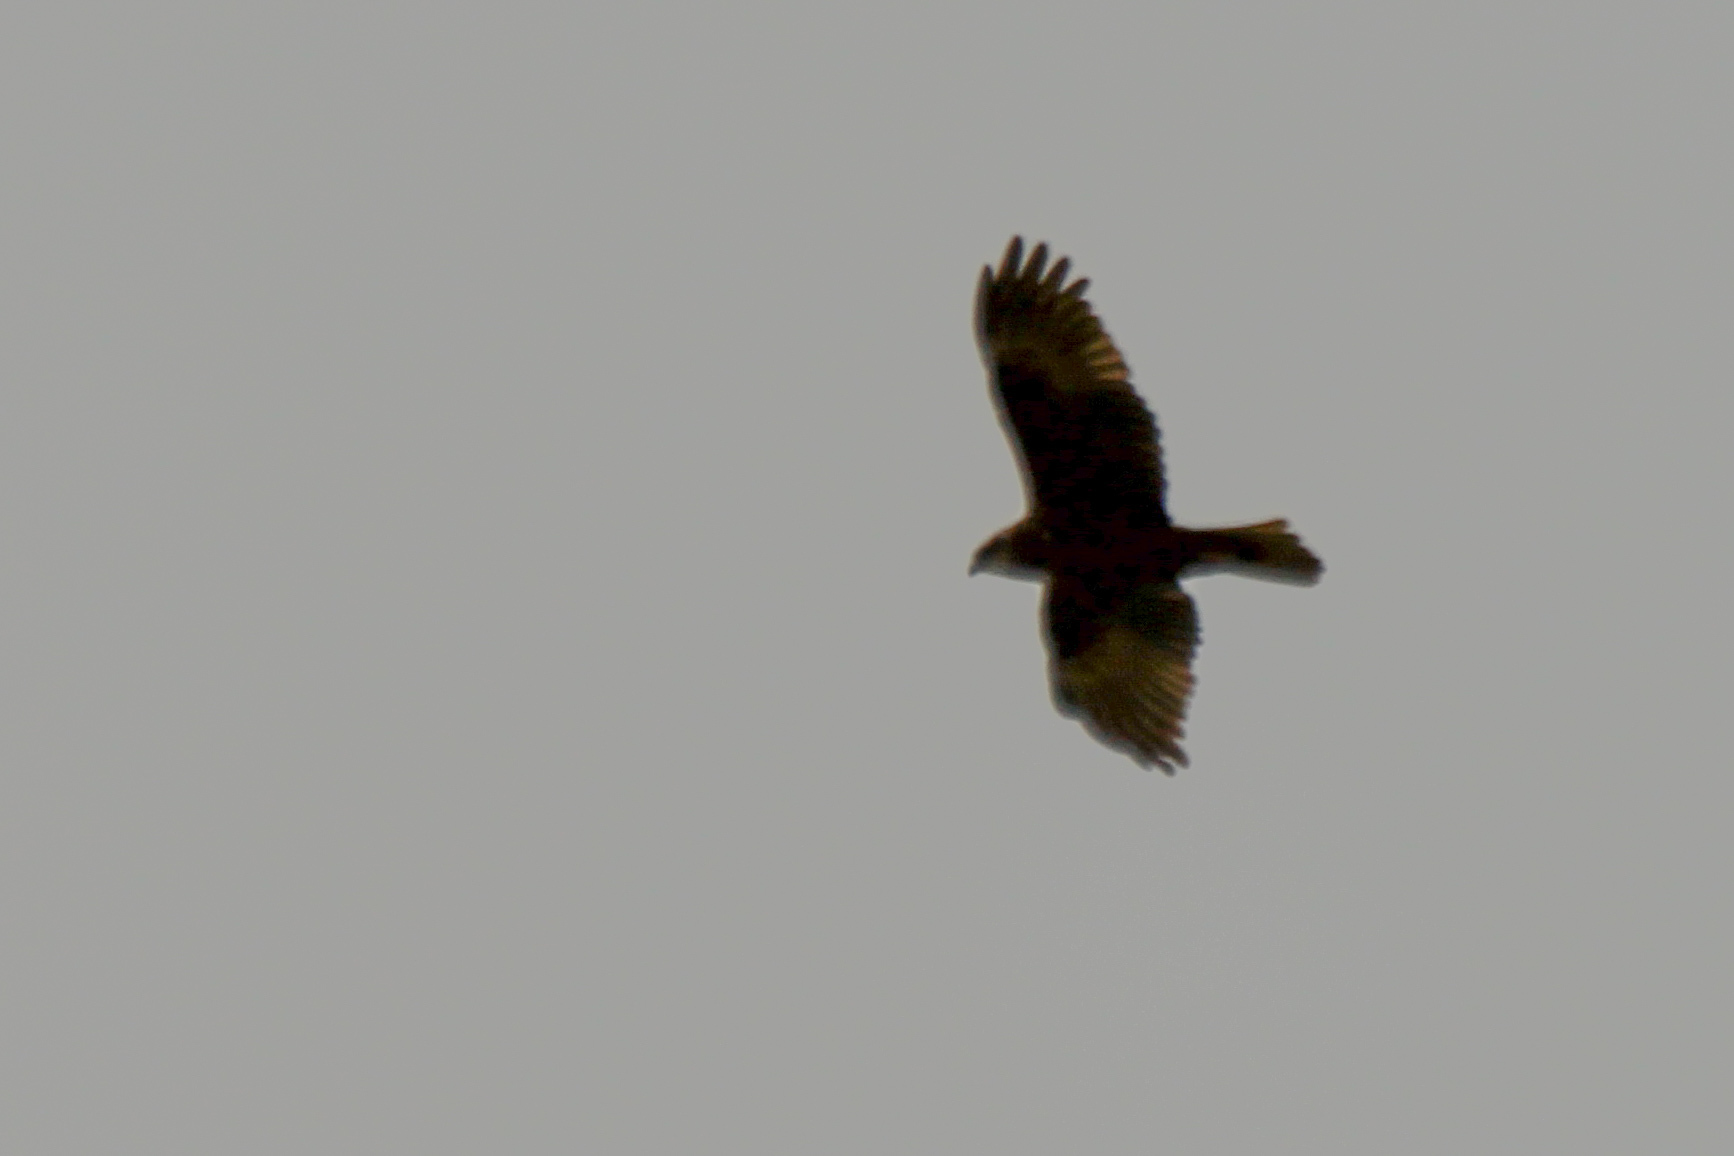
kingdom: Animalia
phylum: Chordata
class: Aves
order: Accipitriformes
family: Accipitridae
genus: Circus
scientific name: Circus aeruginosus
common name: Western marsh harrier
